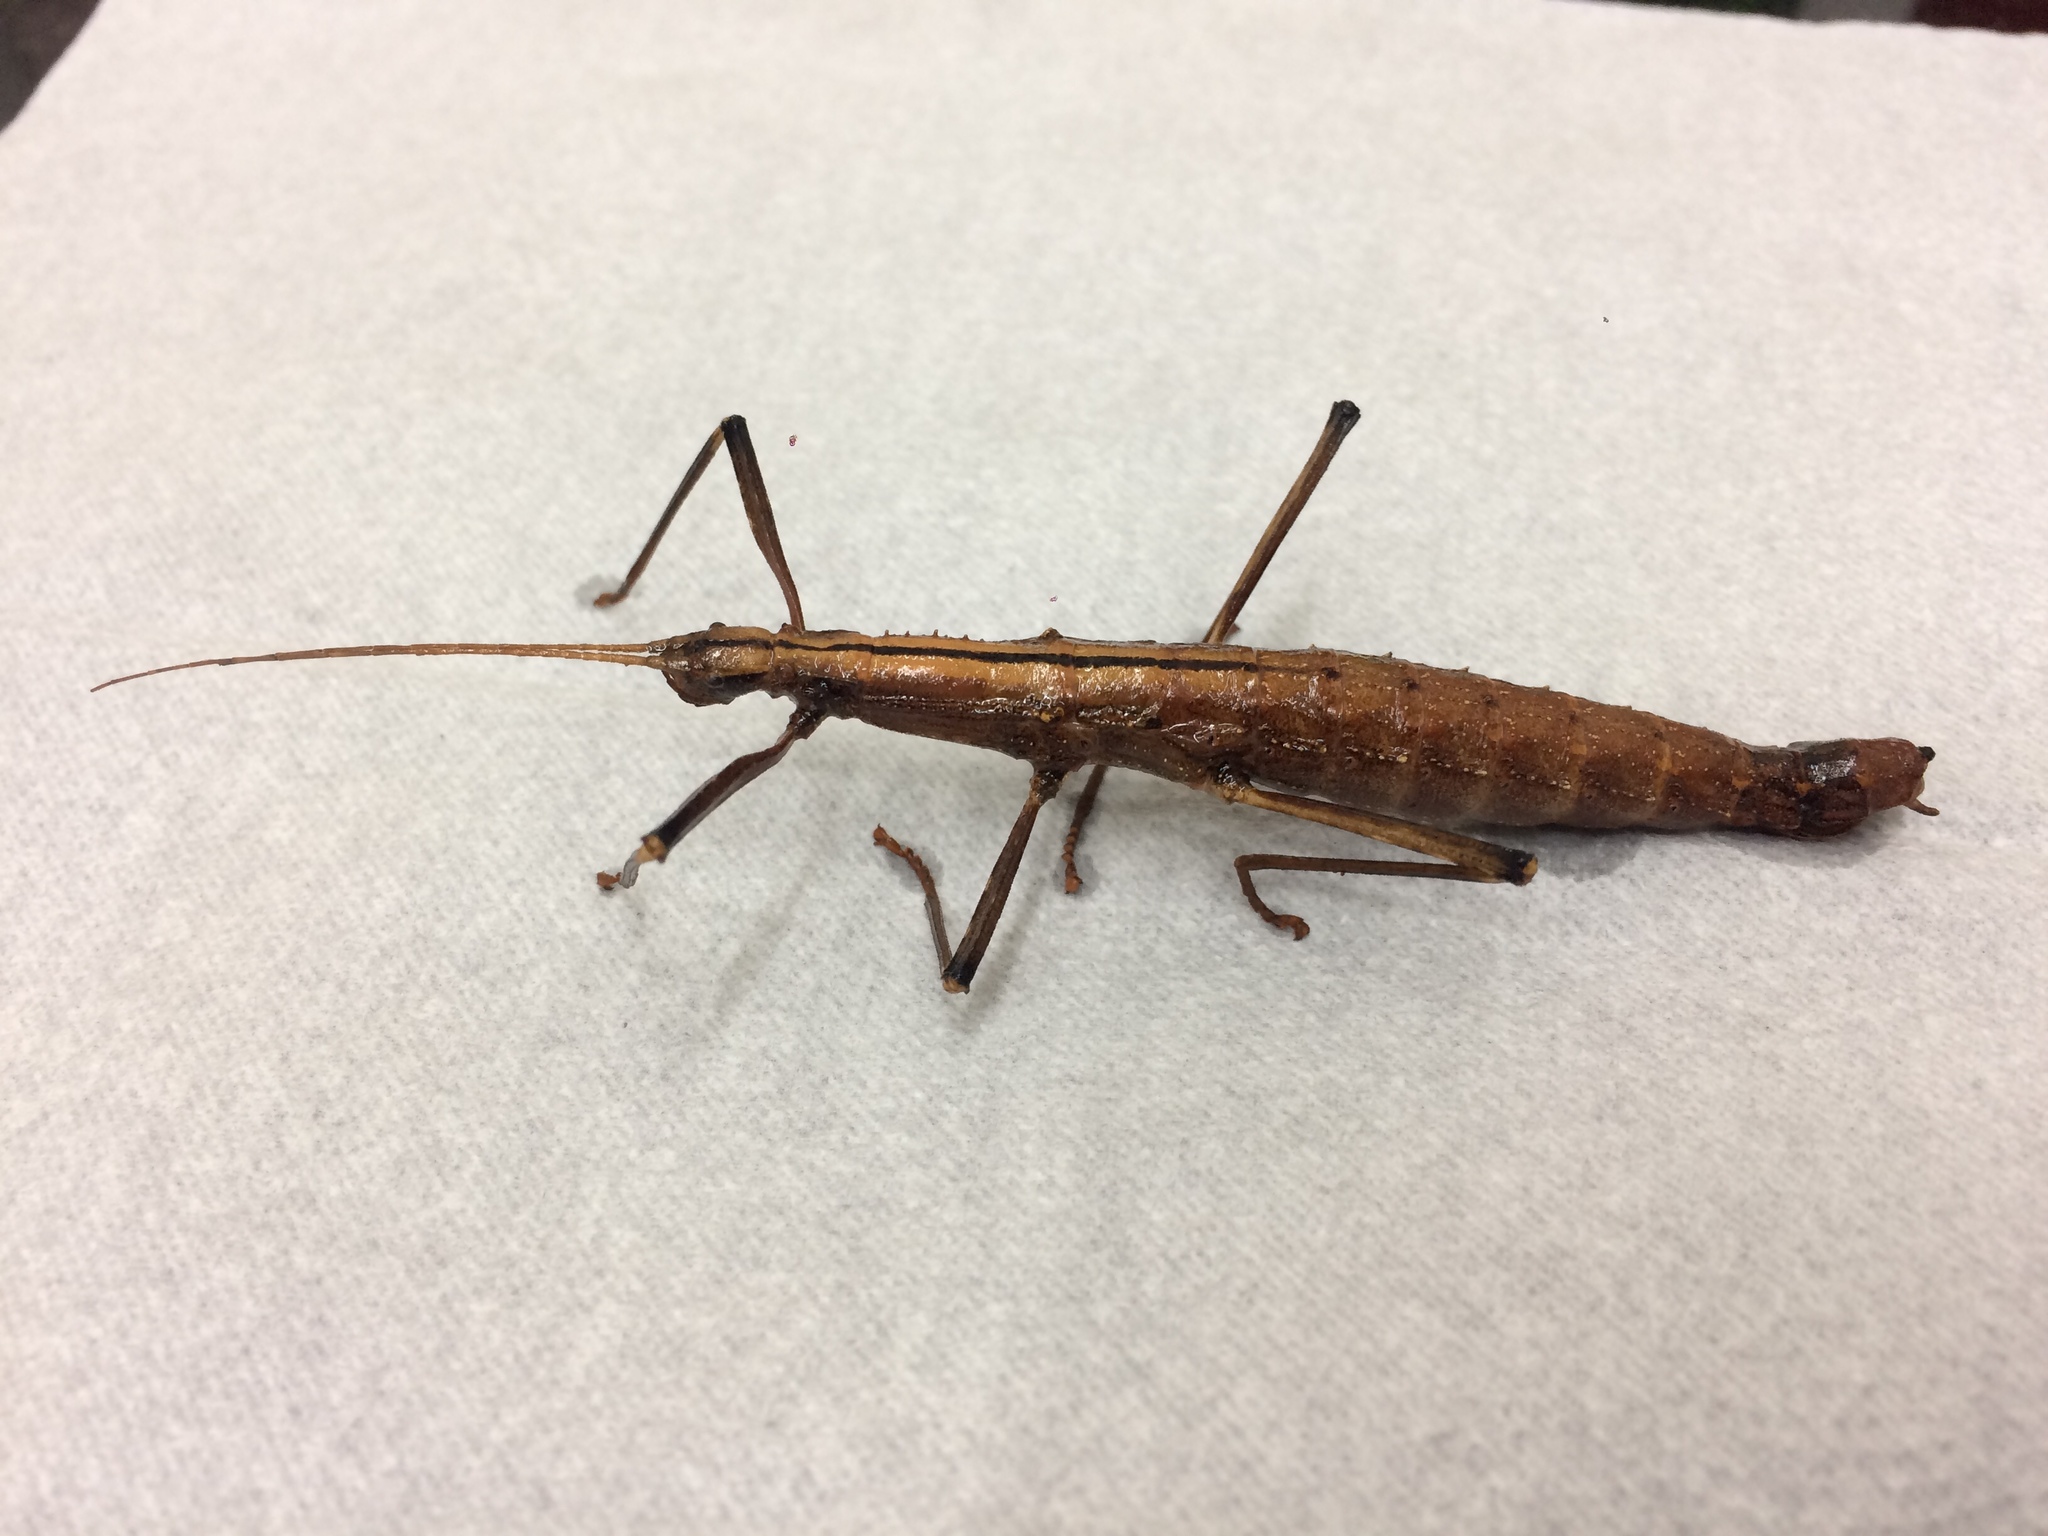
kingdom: Animalia
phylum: Arthropoda
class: Insecta
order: Phasmida
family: Pseudophasmatidae
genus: Pseudophasma
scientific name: Pseudophasma nigrovittatum
